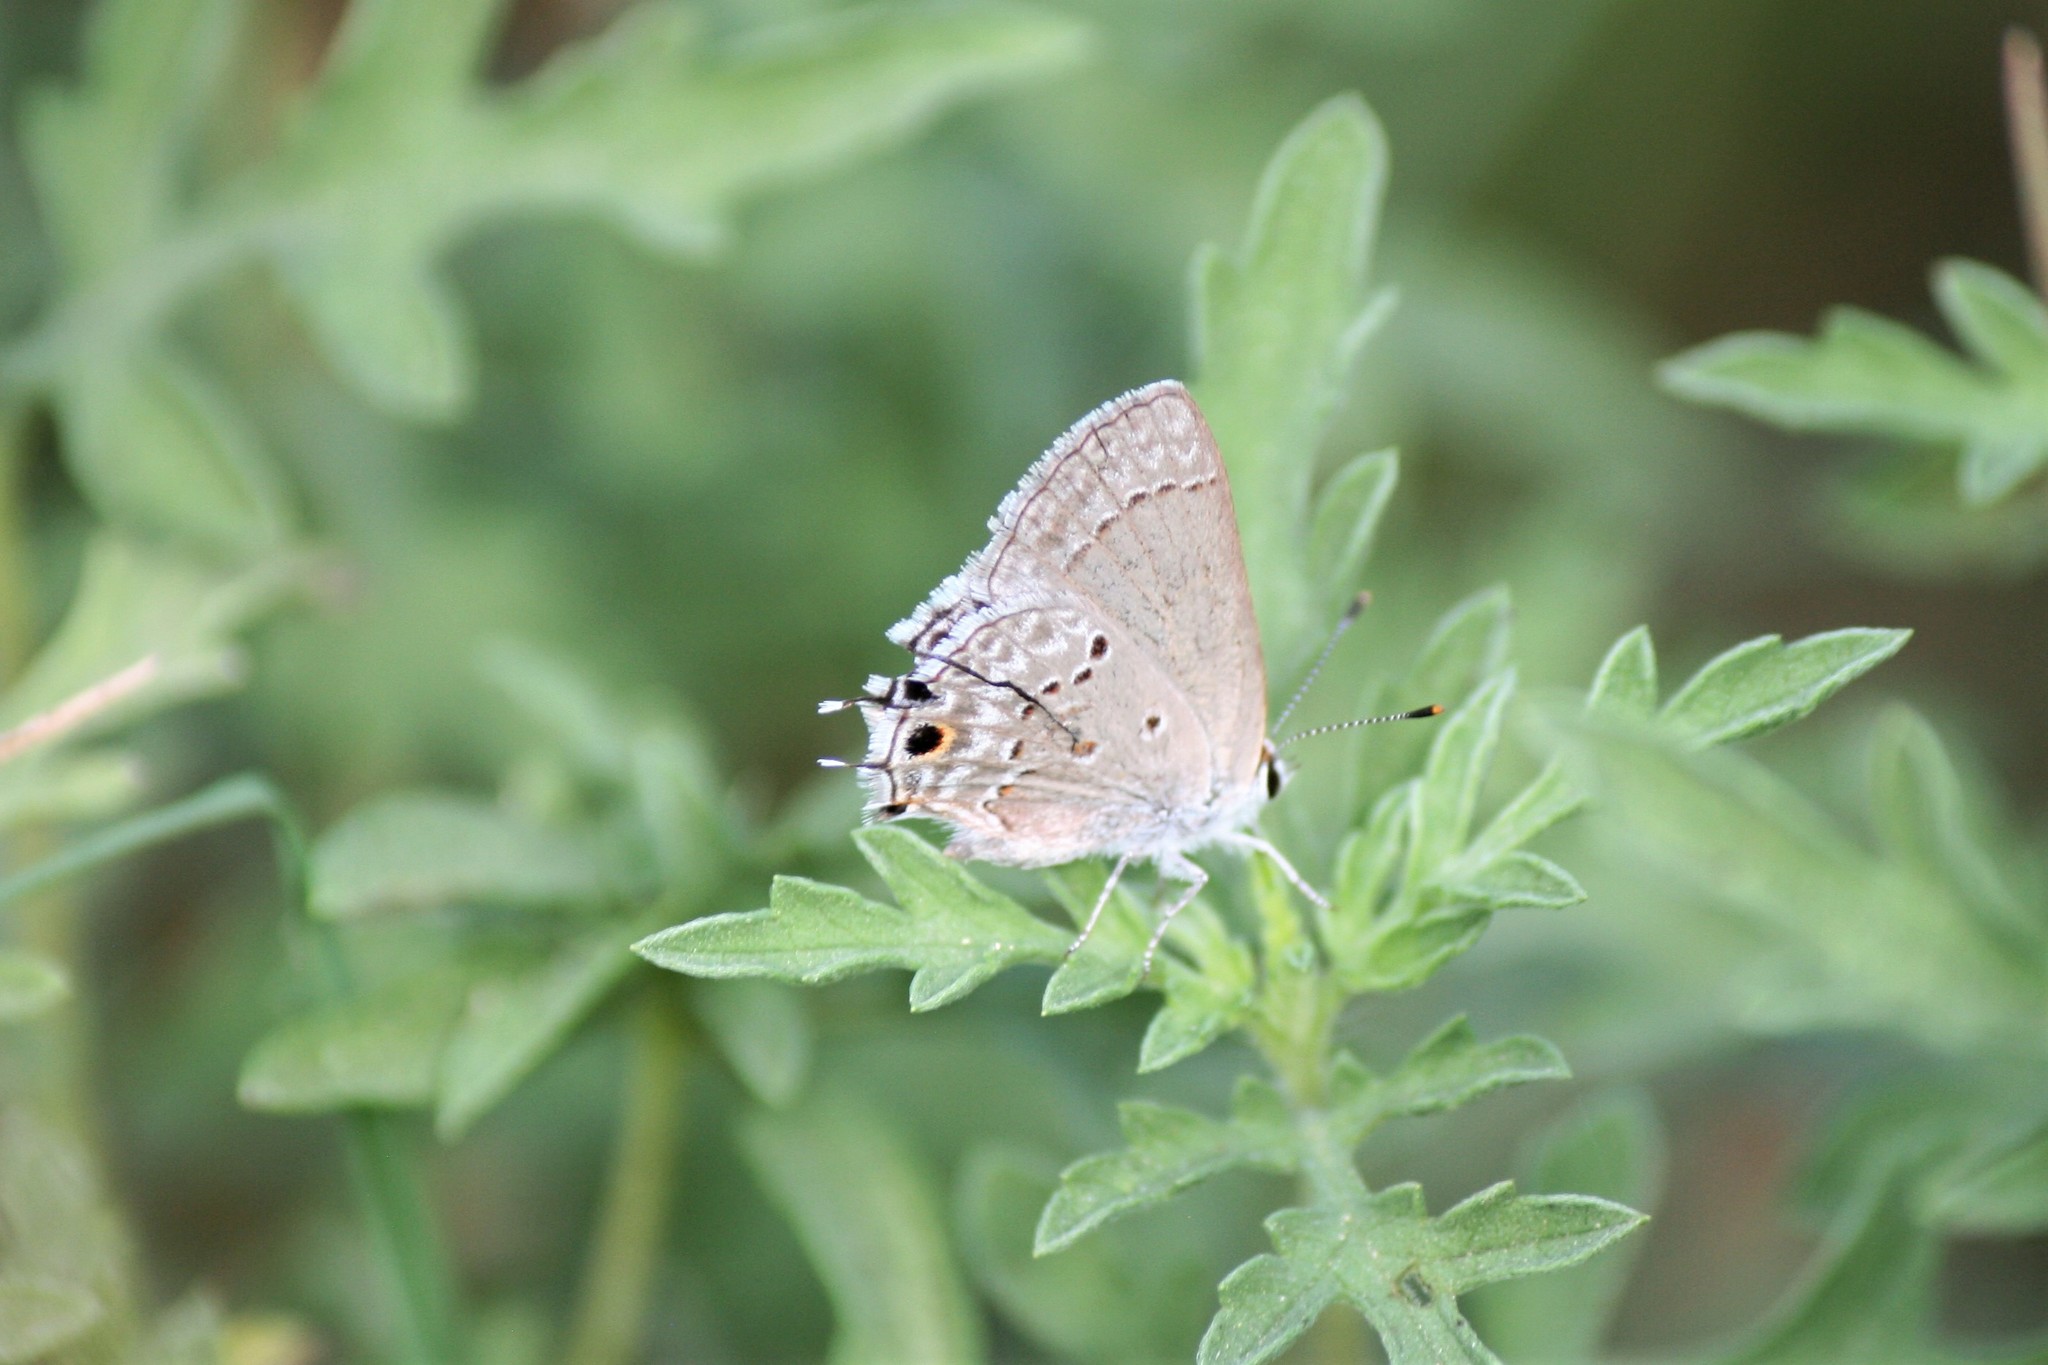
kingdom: Animalia
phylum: Arthropoda
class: Insecta
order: Lepidoptera
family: Lycaenidae
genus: Callicista
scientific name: Callicista columella
